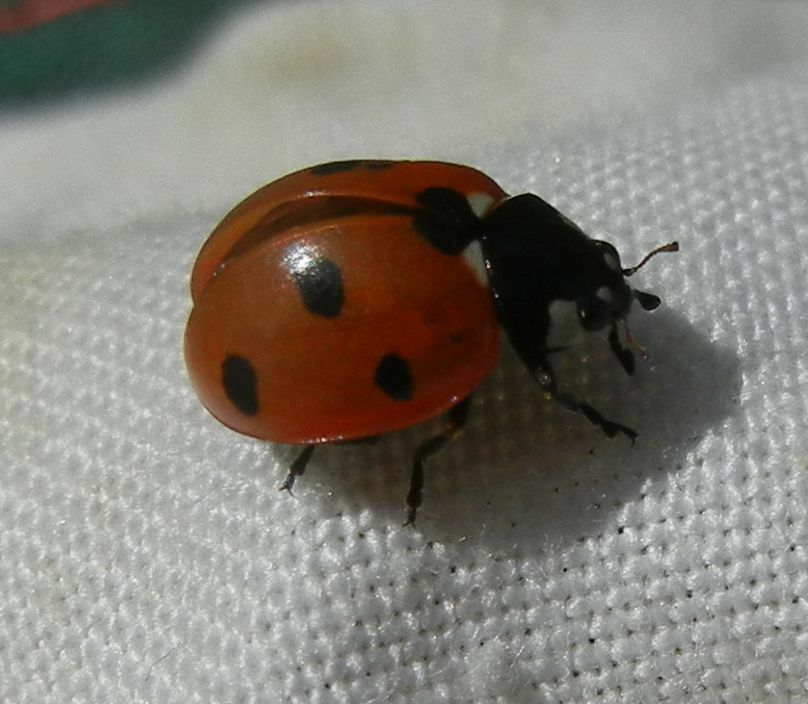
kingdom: Animalia
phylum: Arthropoda
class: Insecta
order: Coleoptera
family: Coccinellidae
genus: Coccinella
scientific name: Coccinella septempunctata
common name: Sevenspotted lady beetle
